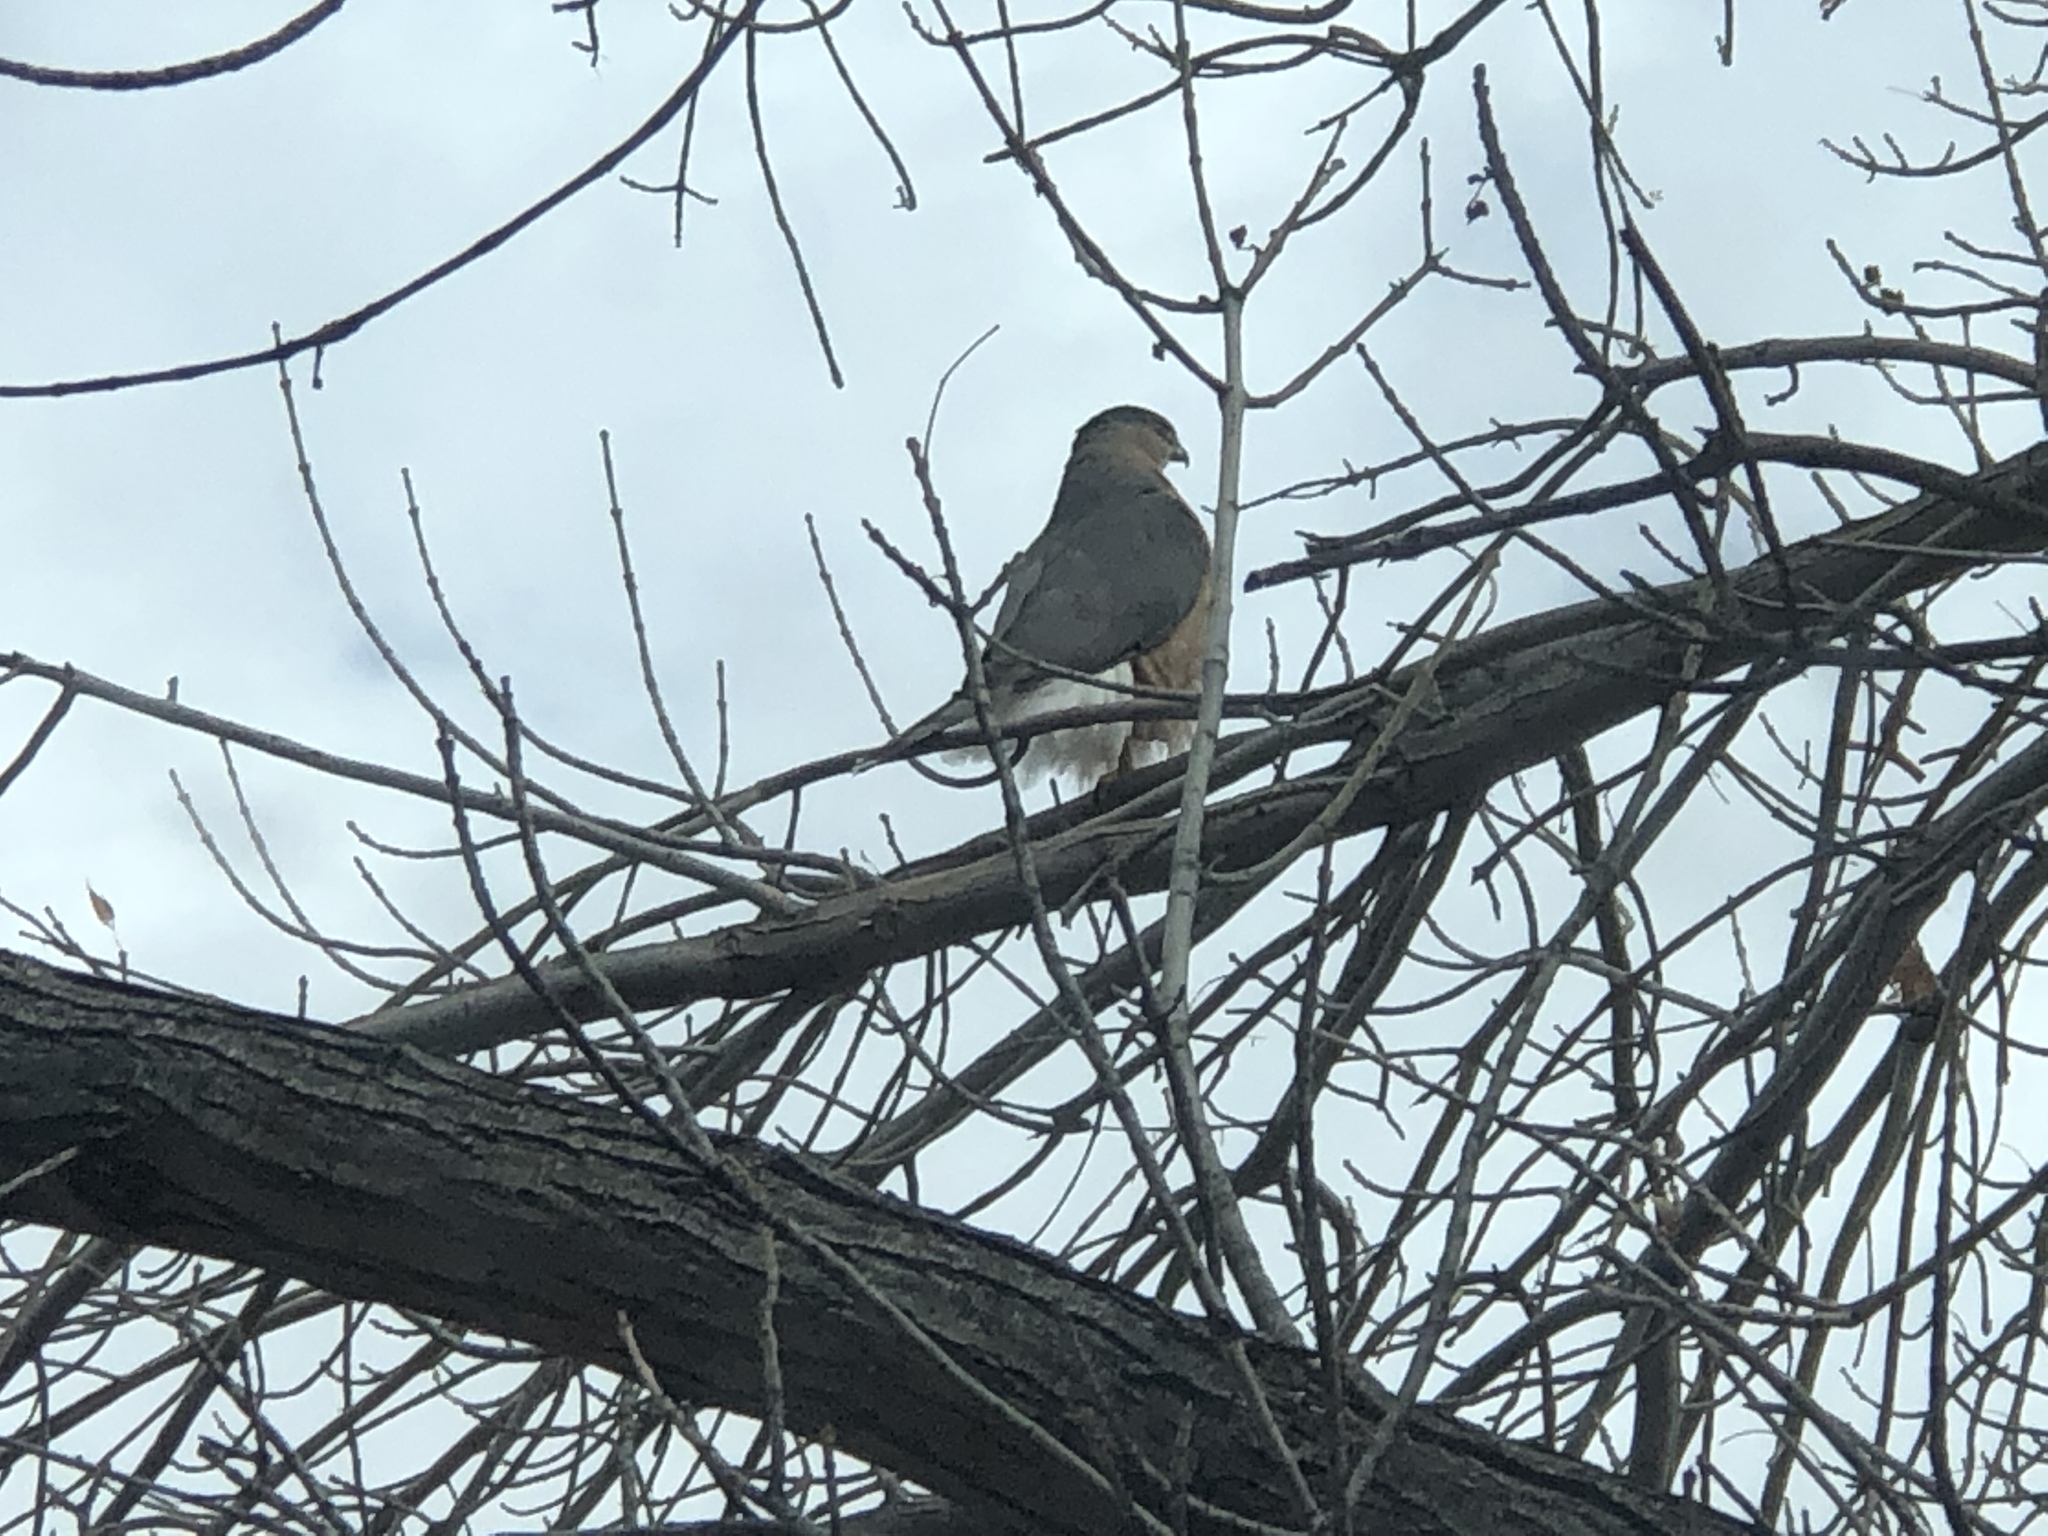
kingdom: Animalia
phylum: Chordata
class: Aves
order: Accipitriformes
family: Accipitridae
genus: Accipiter
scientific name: Accipiter cooperii
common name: Cooper's hawk
